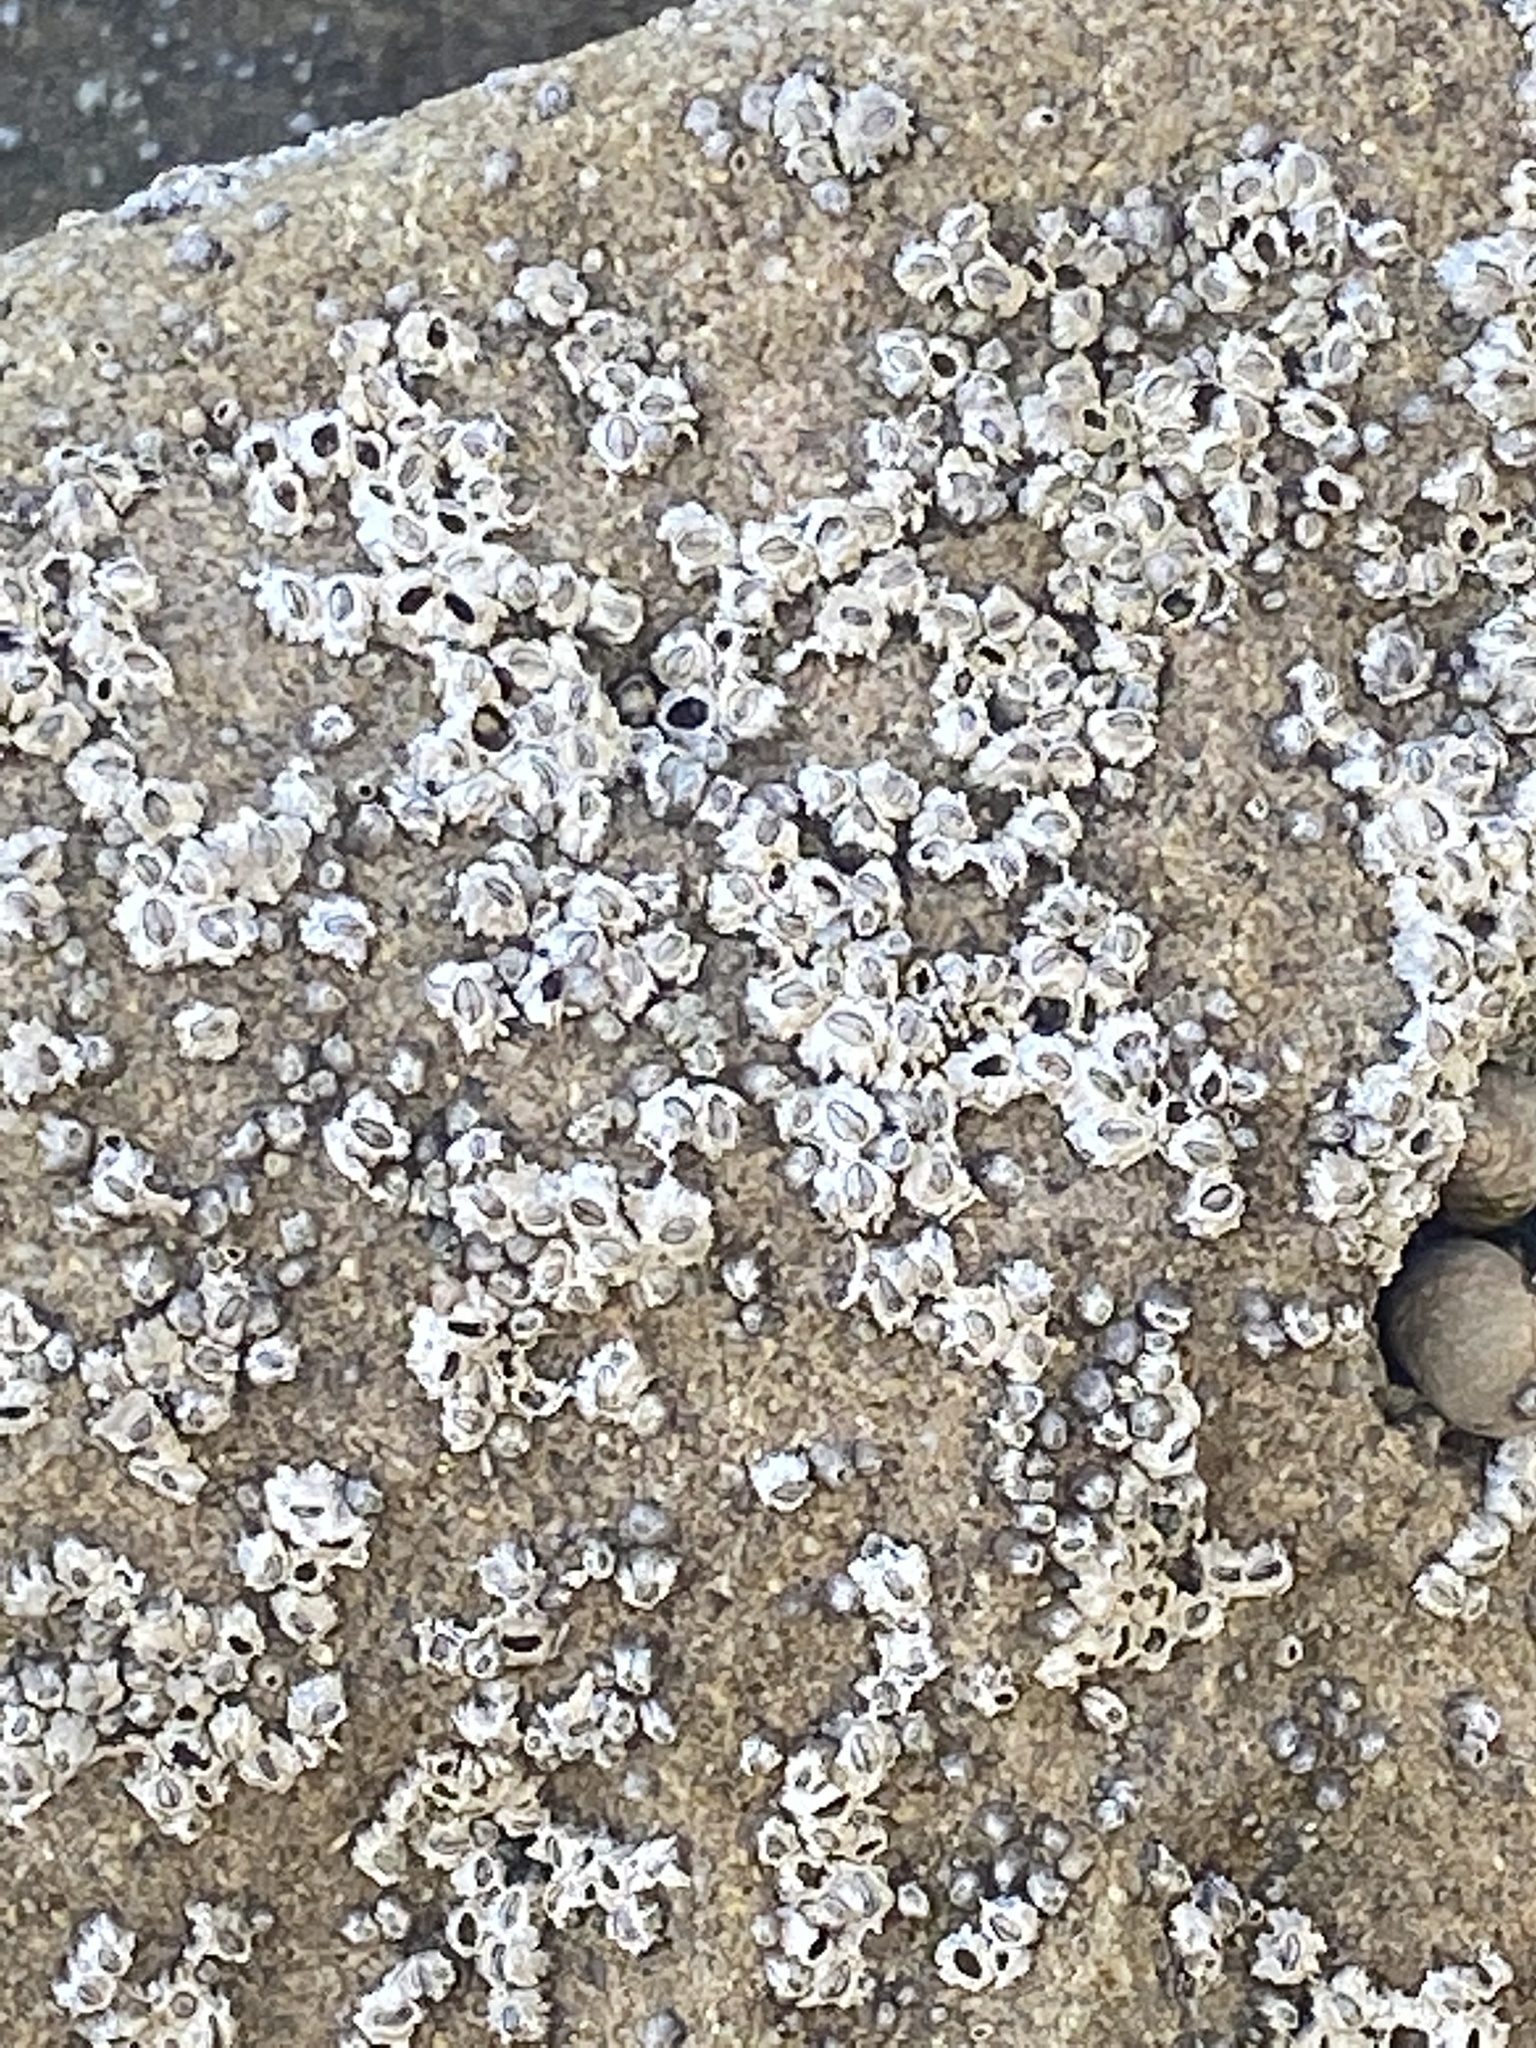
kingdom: Animalia
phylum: Arthropoda
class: Maxillopoda
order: Sessilia
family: Chthamalidae
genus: Chthamalus
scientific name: Chthamalus dalli
